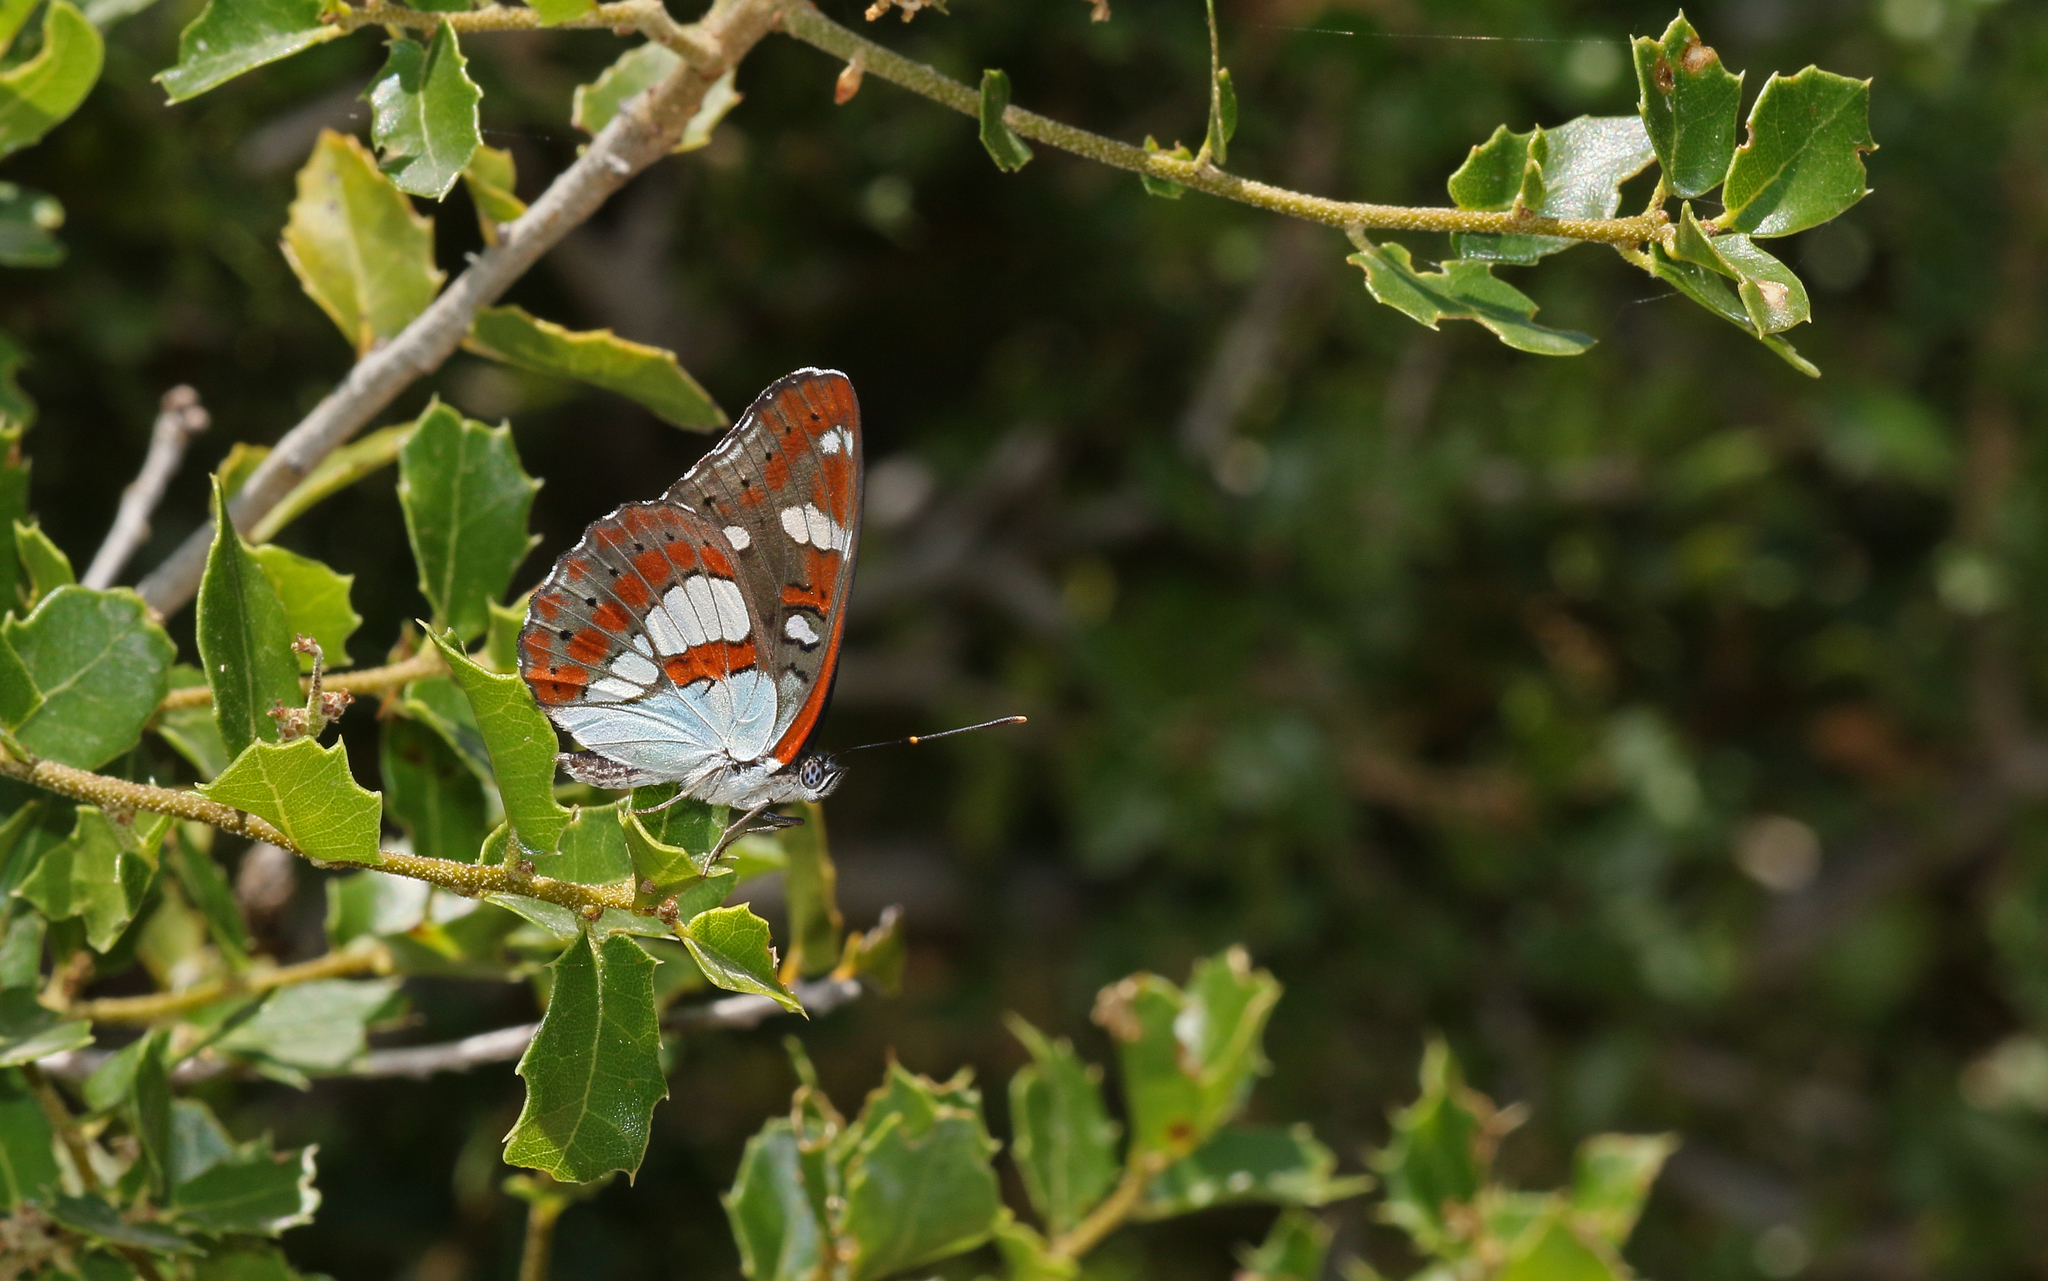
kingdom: Animalia
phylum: Arthropoda
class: Insecta
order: Lepidoptera
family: Nymphalidae
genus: Limenitis
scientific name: Limenitis reducta
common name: Southern white admiral
